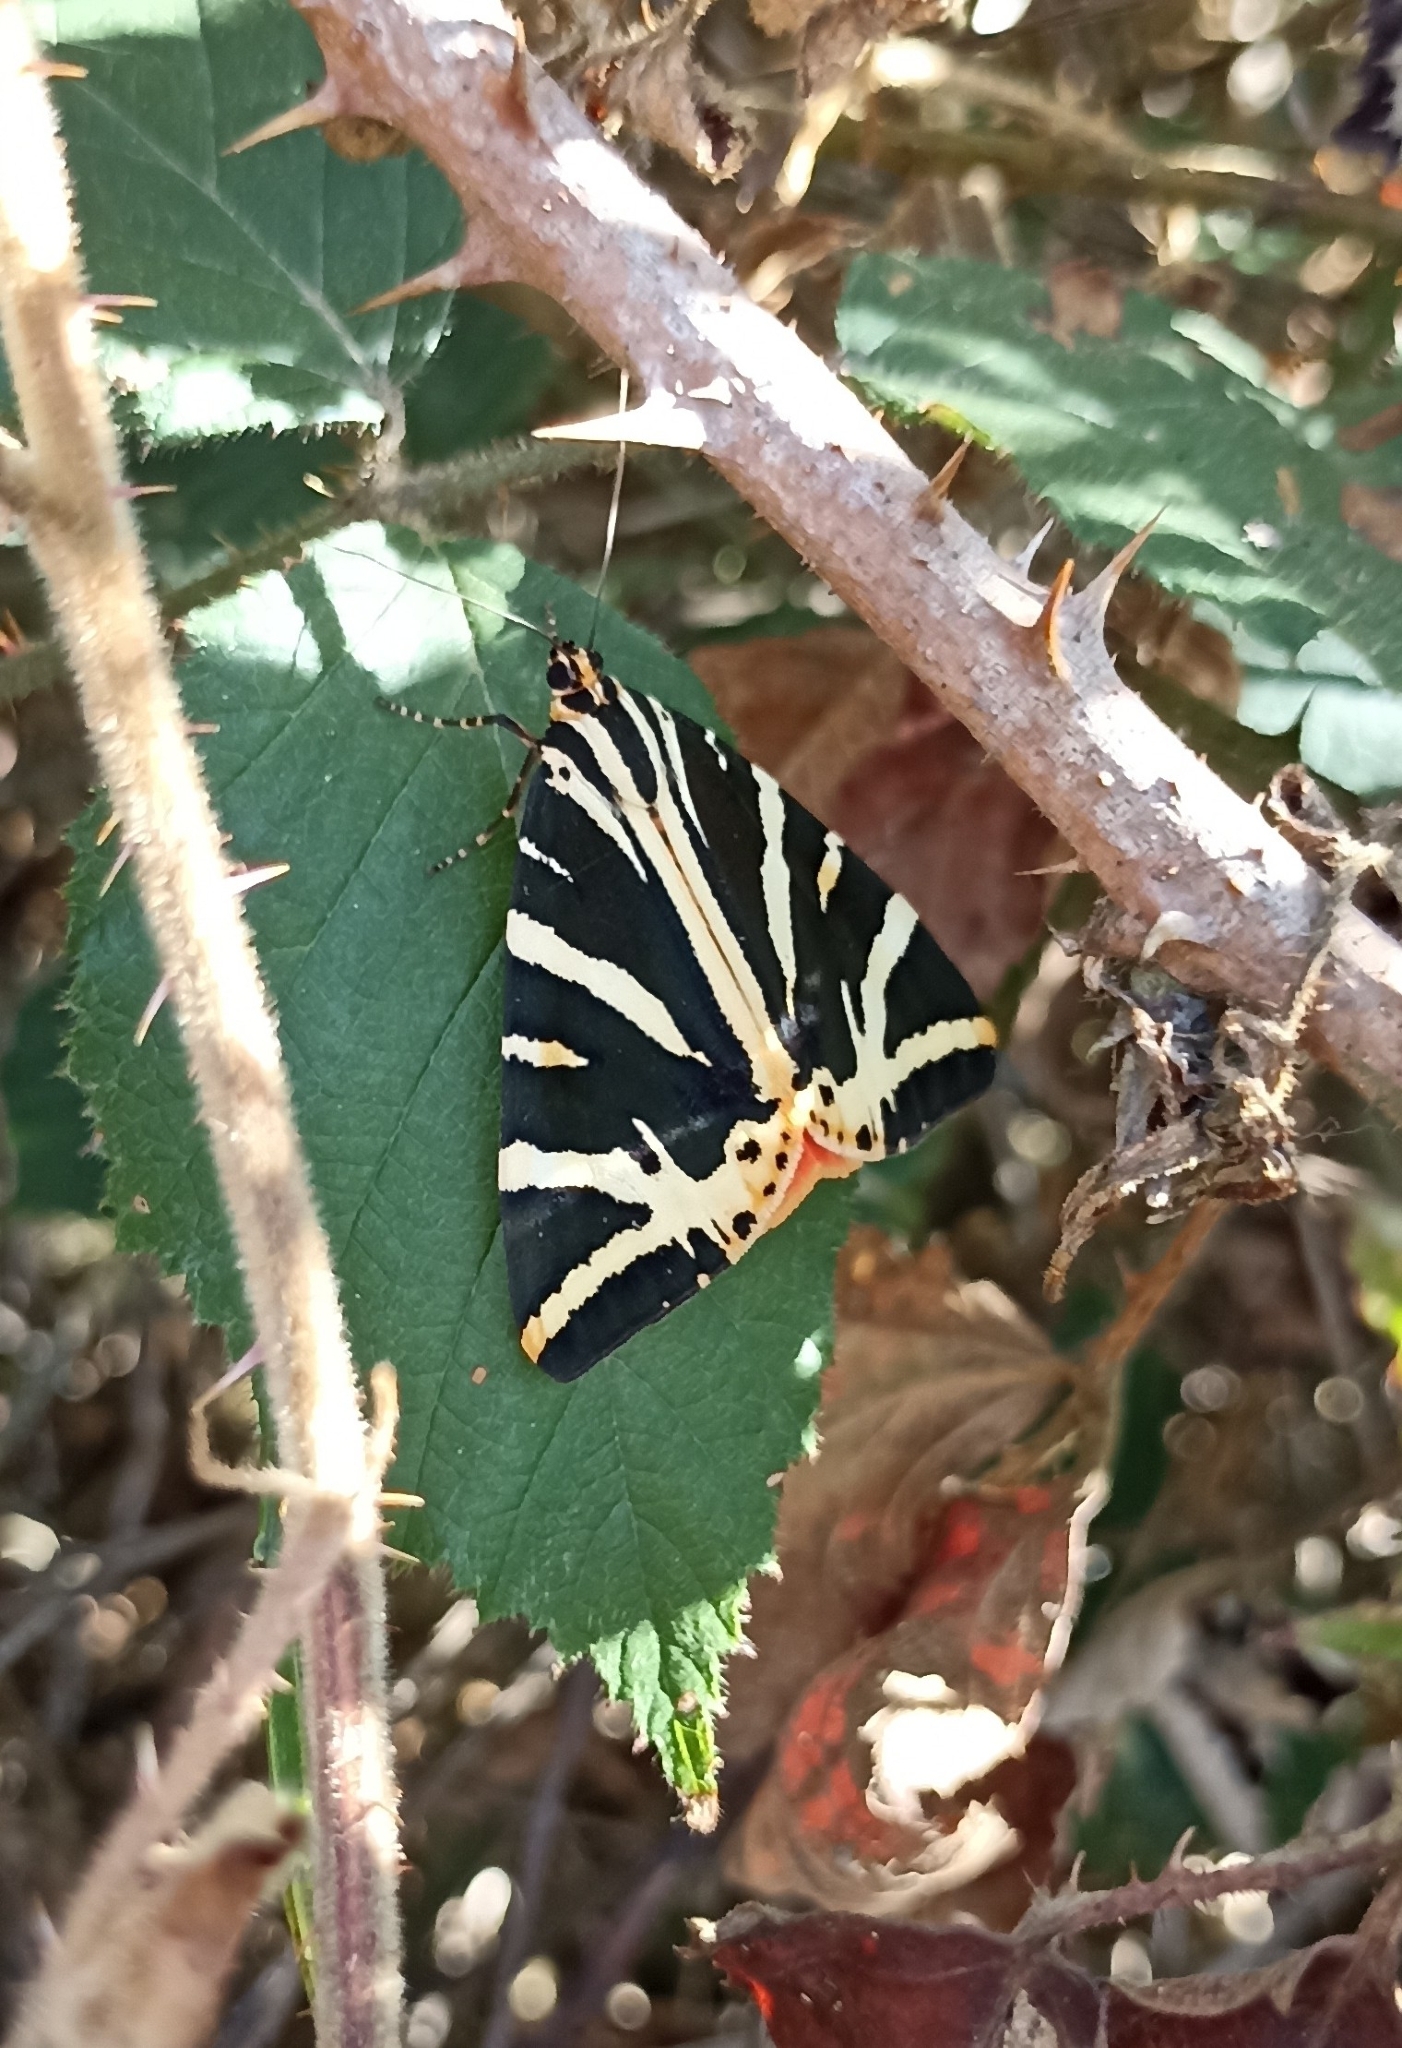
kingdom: Animalia
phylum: Arthropoda
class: Insecta
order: Lepidoptera
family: Erebidae
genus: Euplagia
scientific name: Euplagia quadripunctaria
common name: Jersey tiger
